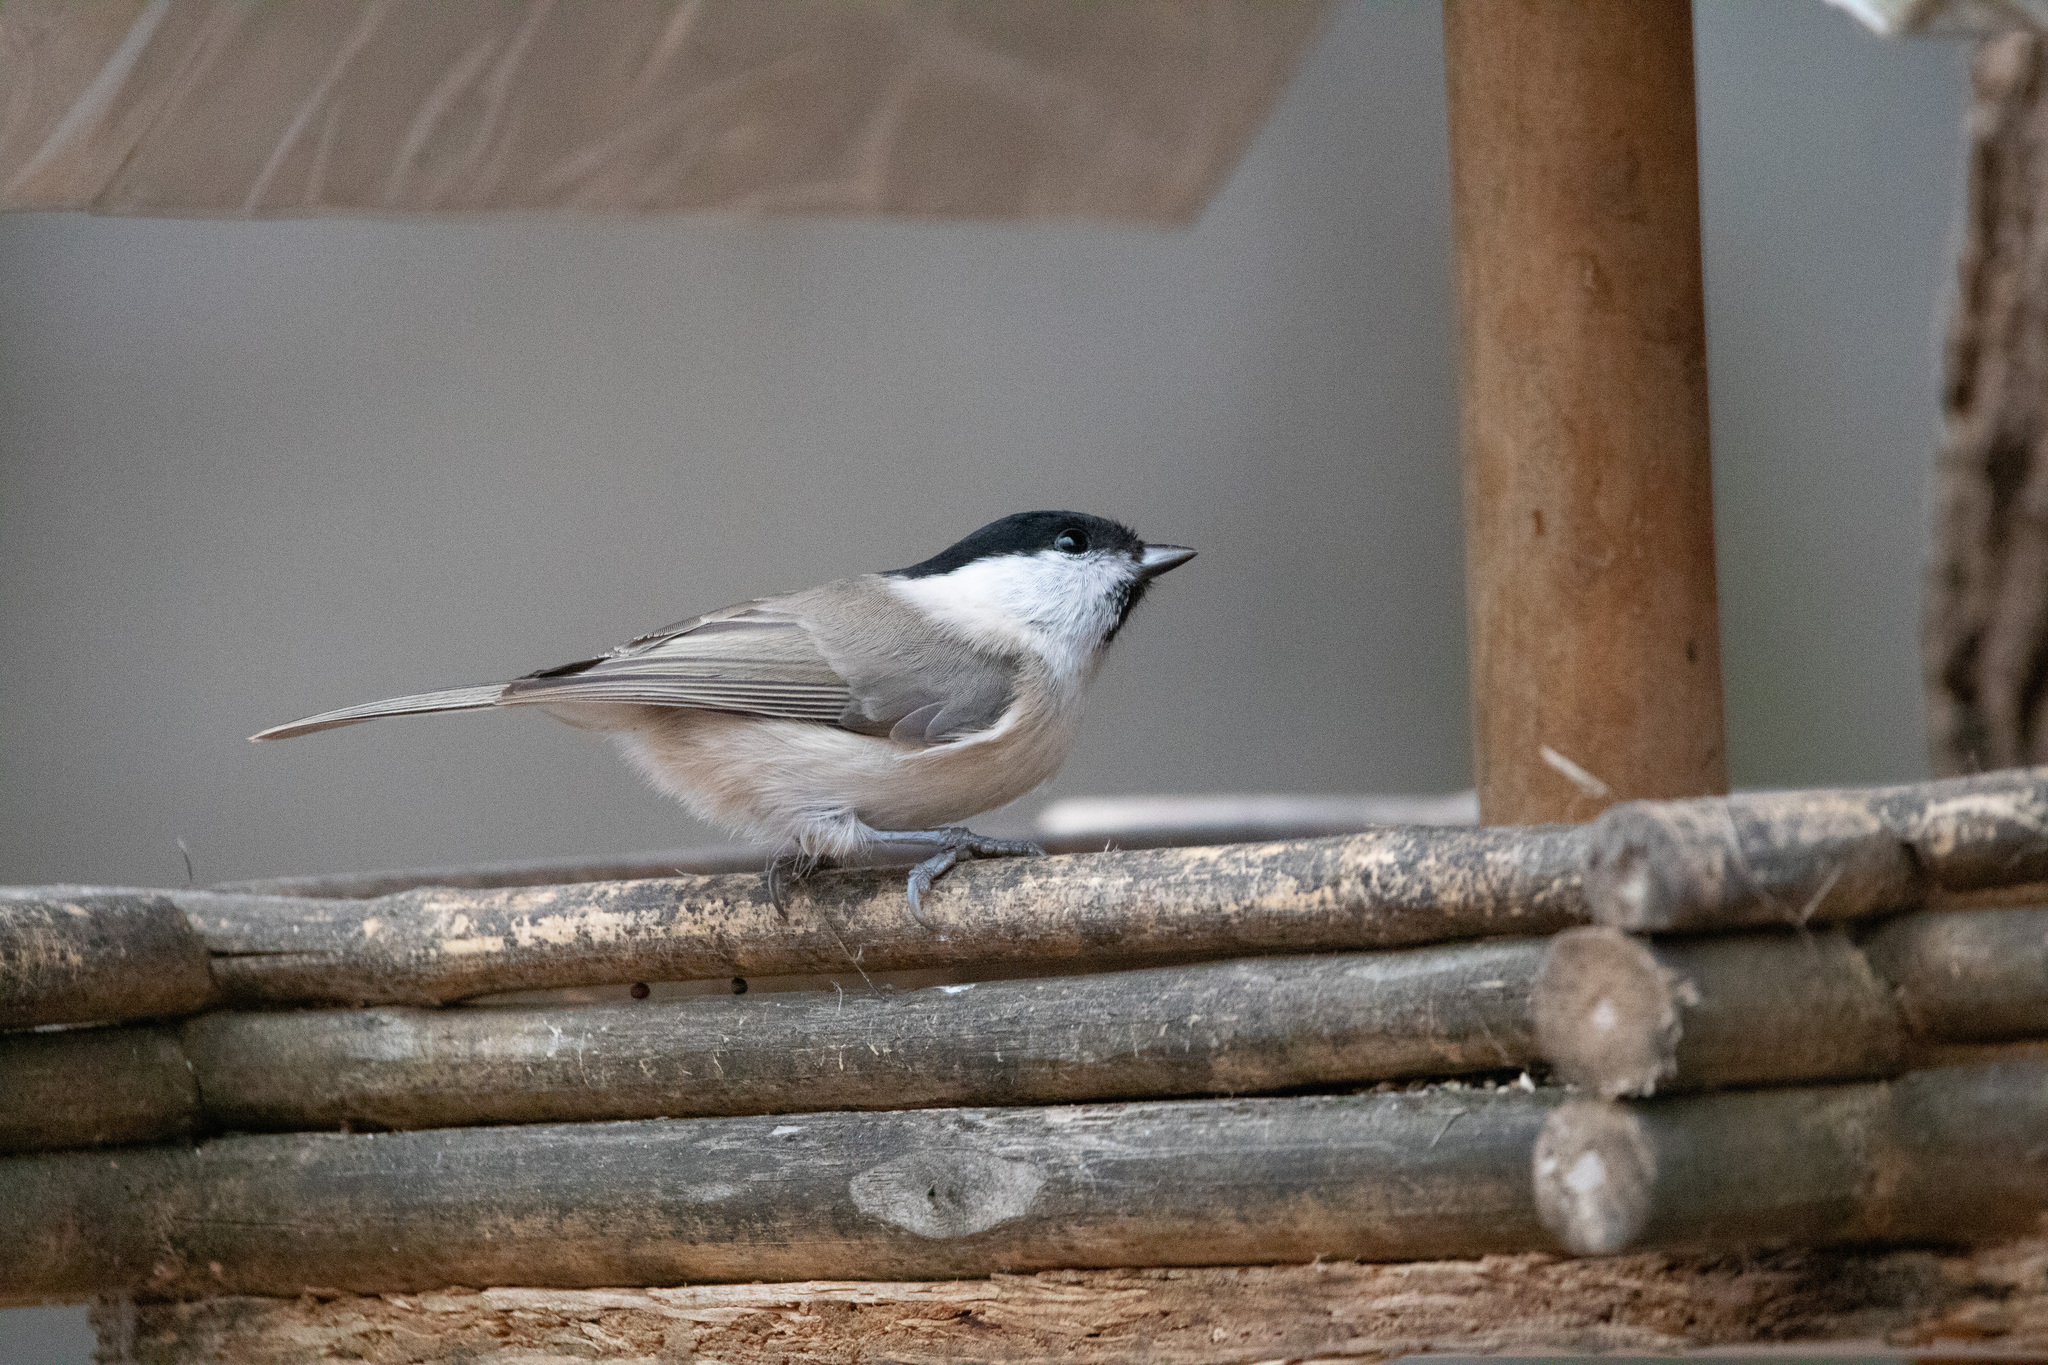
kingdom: Animalia
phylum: Chordata
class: Aves
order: Passeriformes
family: Paridae
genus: Poecile
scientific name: Poecile montanus
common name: Willow tit
